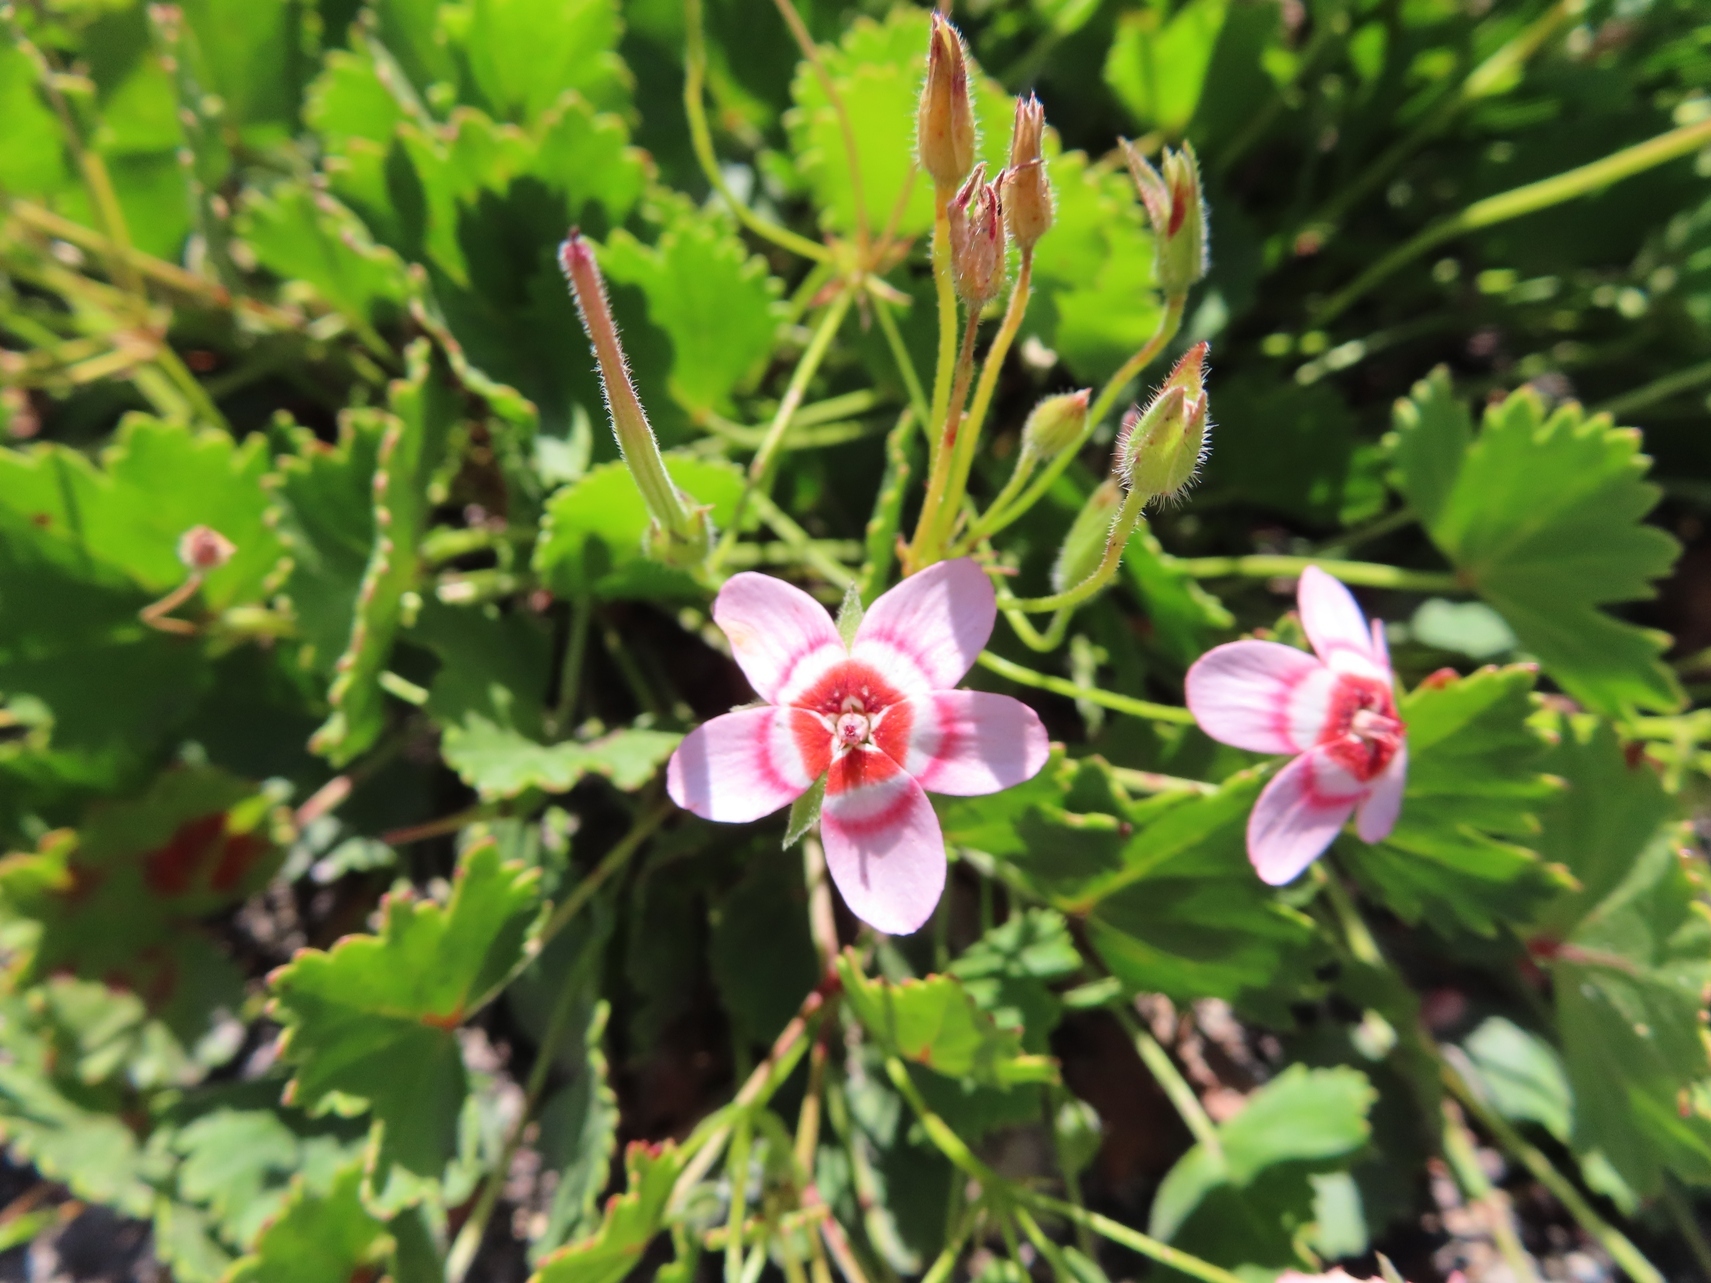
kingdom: Plantae
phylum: Tracheophyta
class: Magnoliopsida
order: Geraniales
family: Geraniaceae
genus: Pelargonium
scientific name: Pelargonium incarnatum
